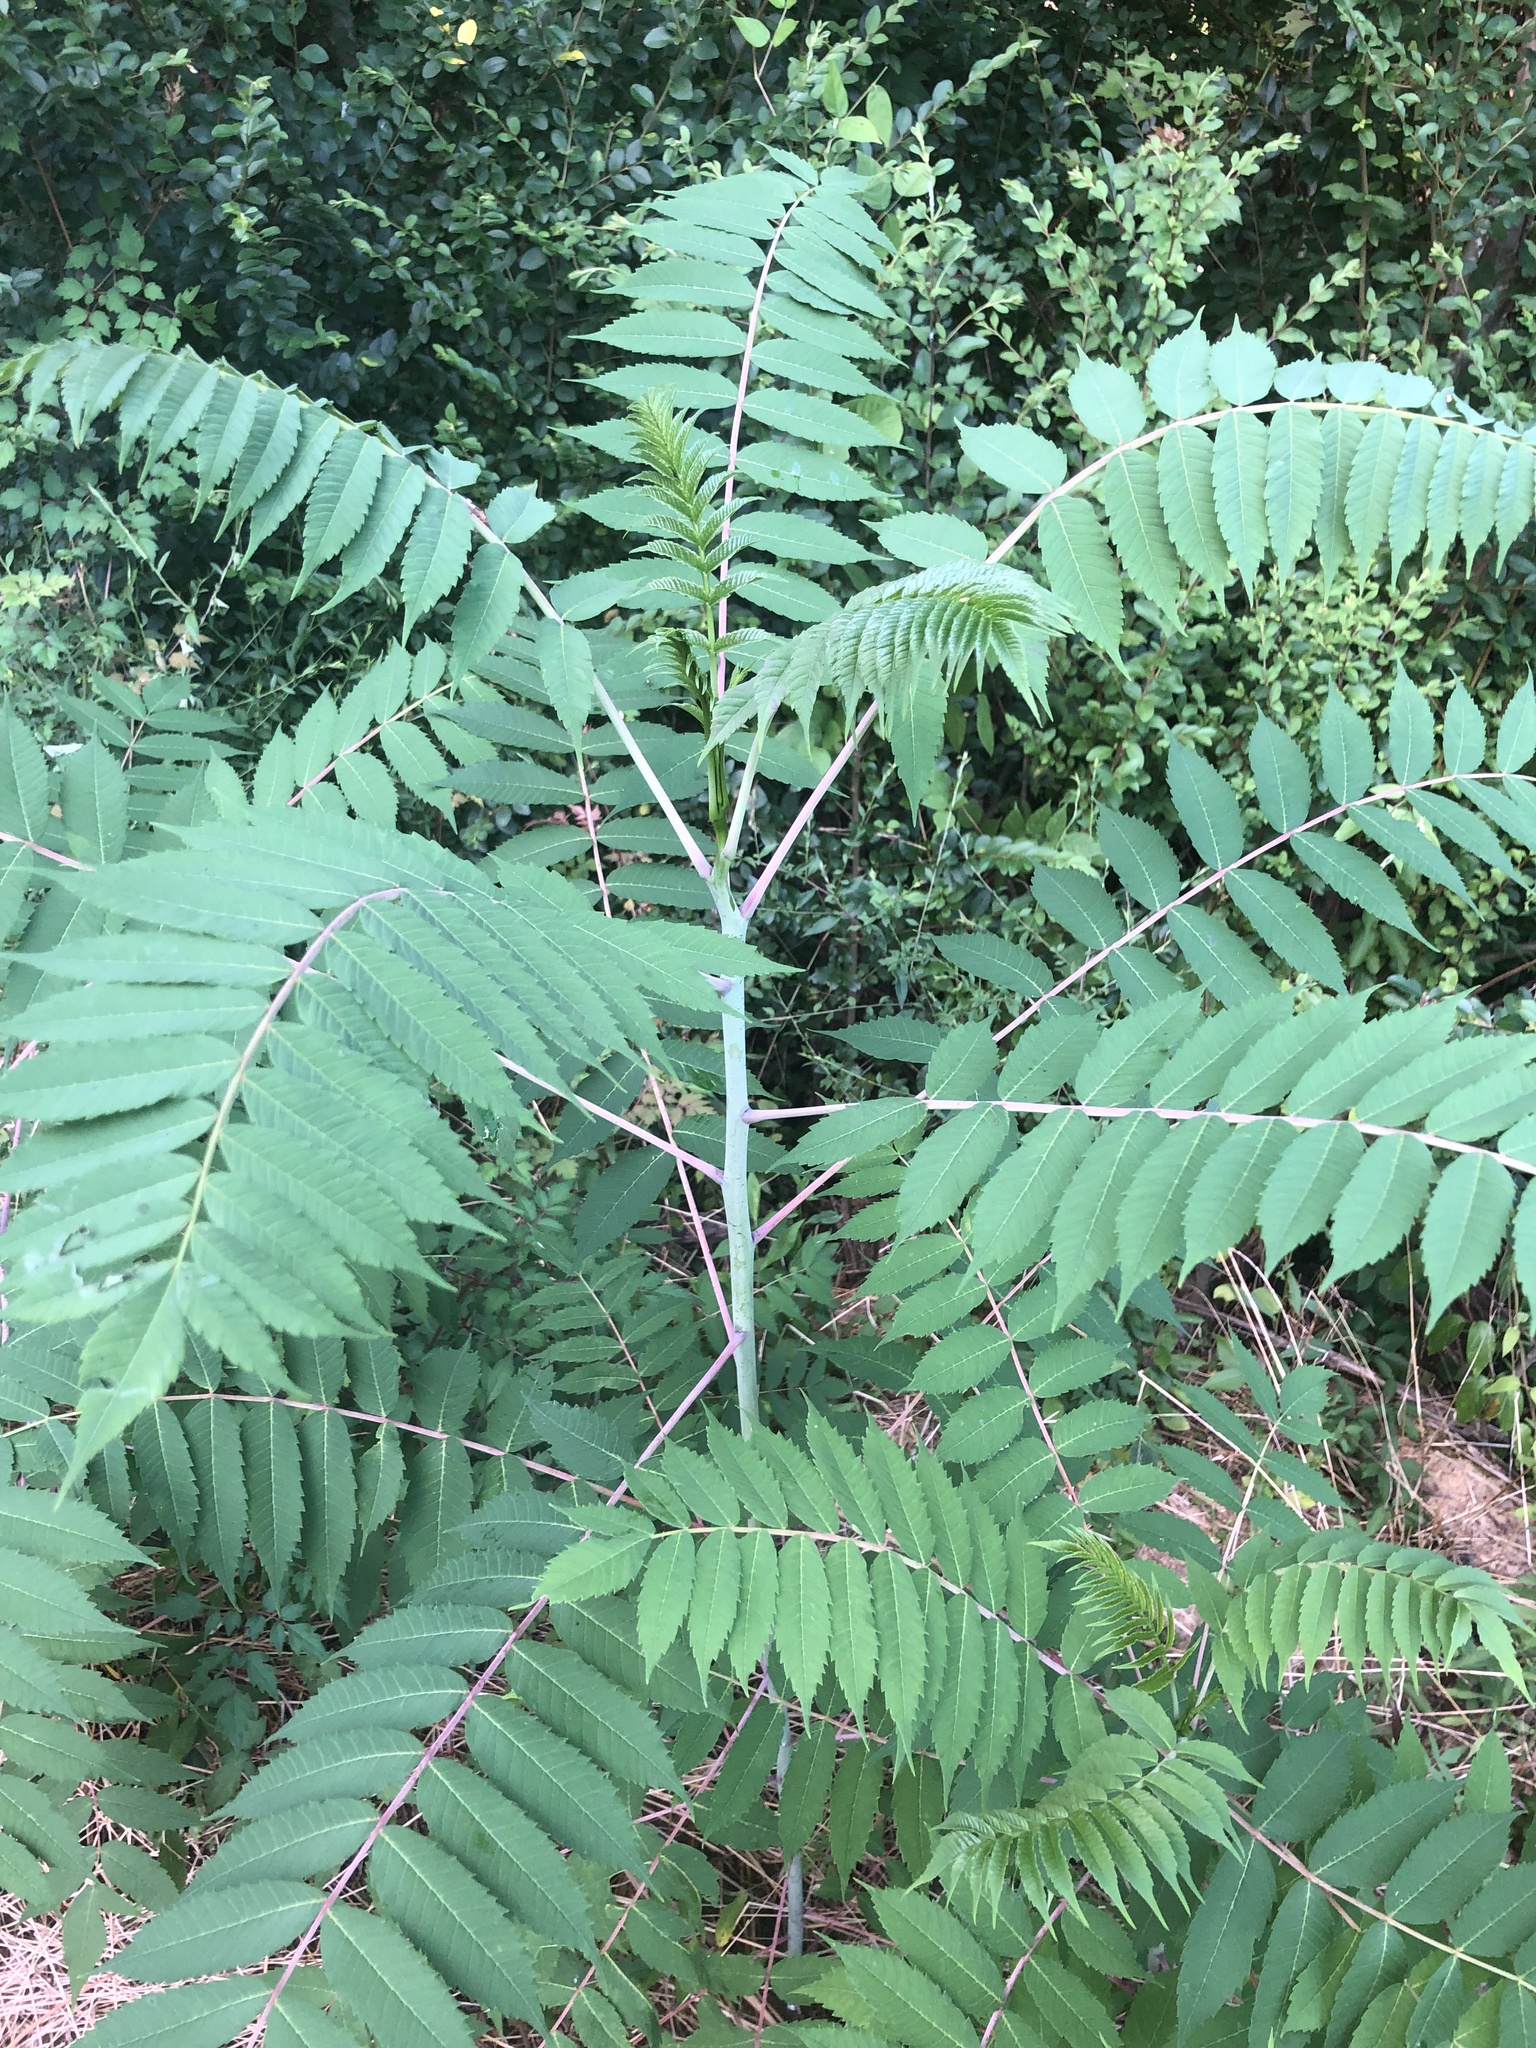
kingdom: Plantae
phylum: Tracheophyta
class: Magnoliopsida
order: Sapindales
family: Anacardiaceae
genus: Rhus
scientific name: Rhus glabra
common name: Scarlet sumac
